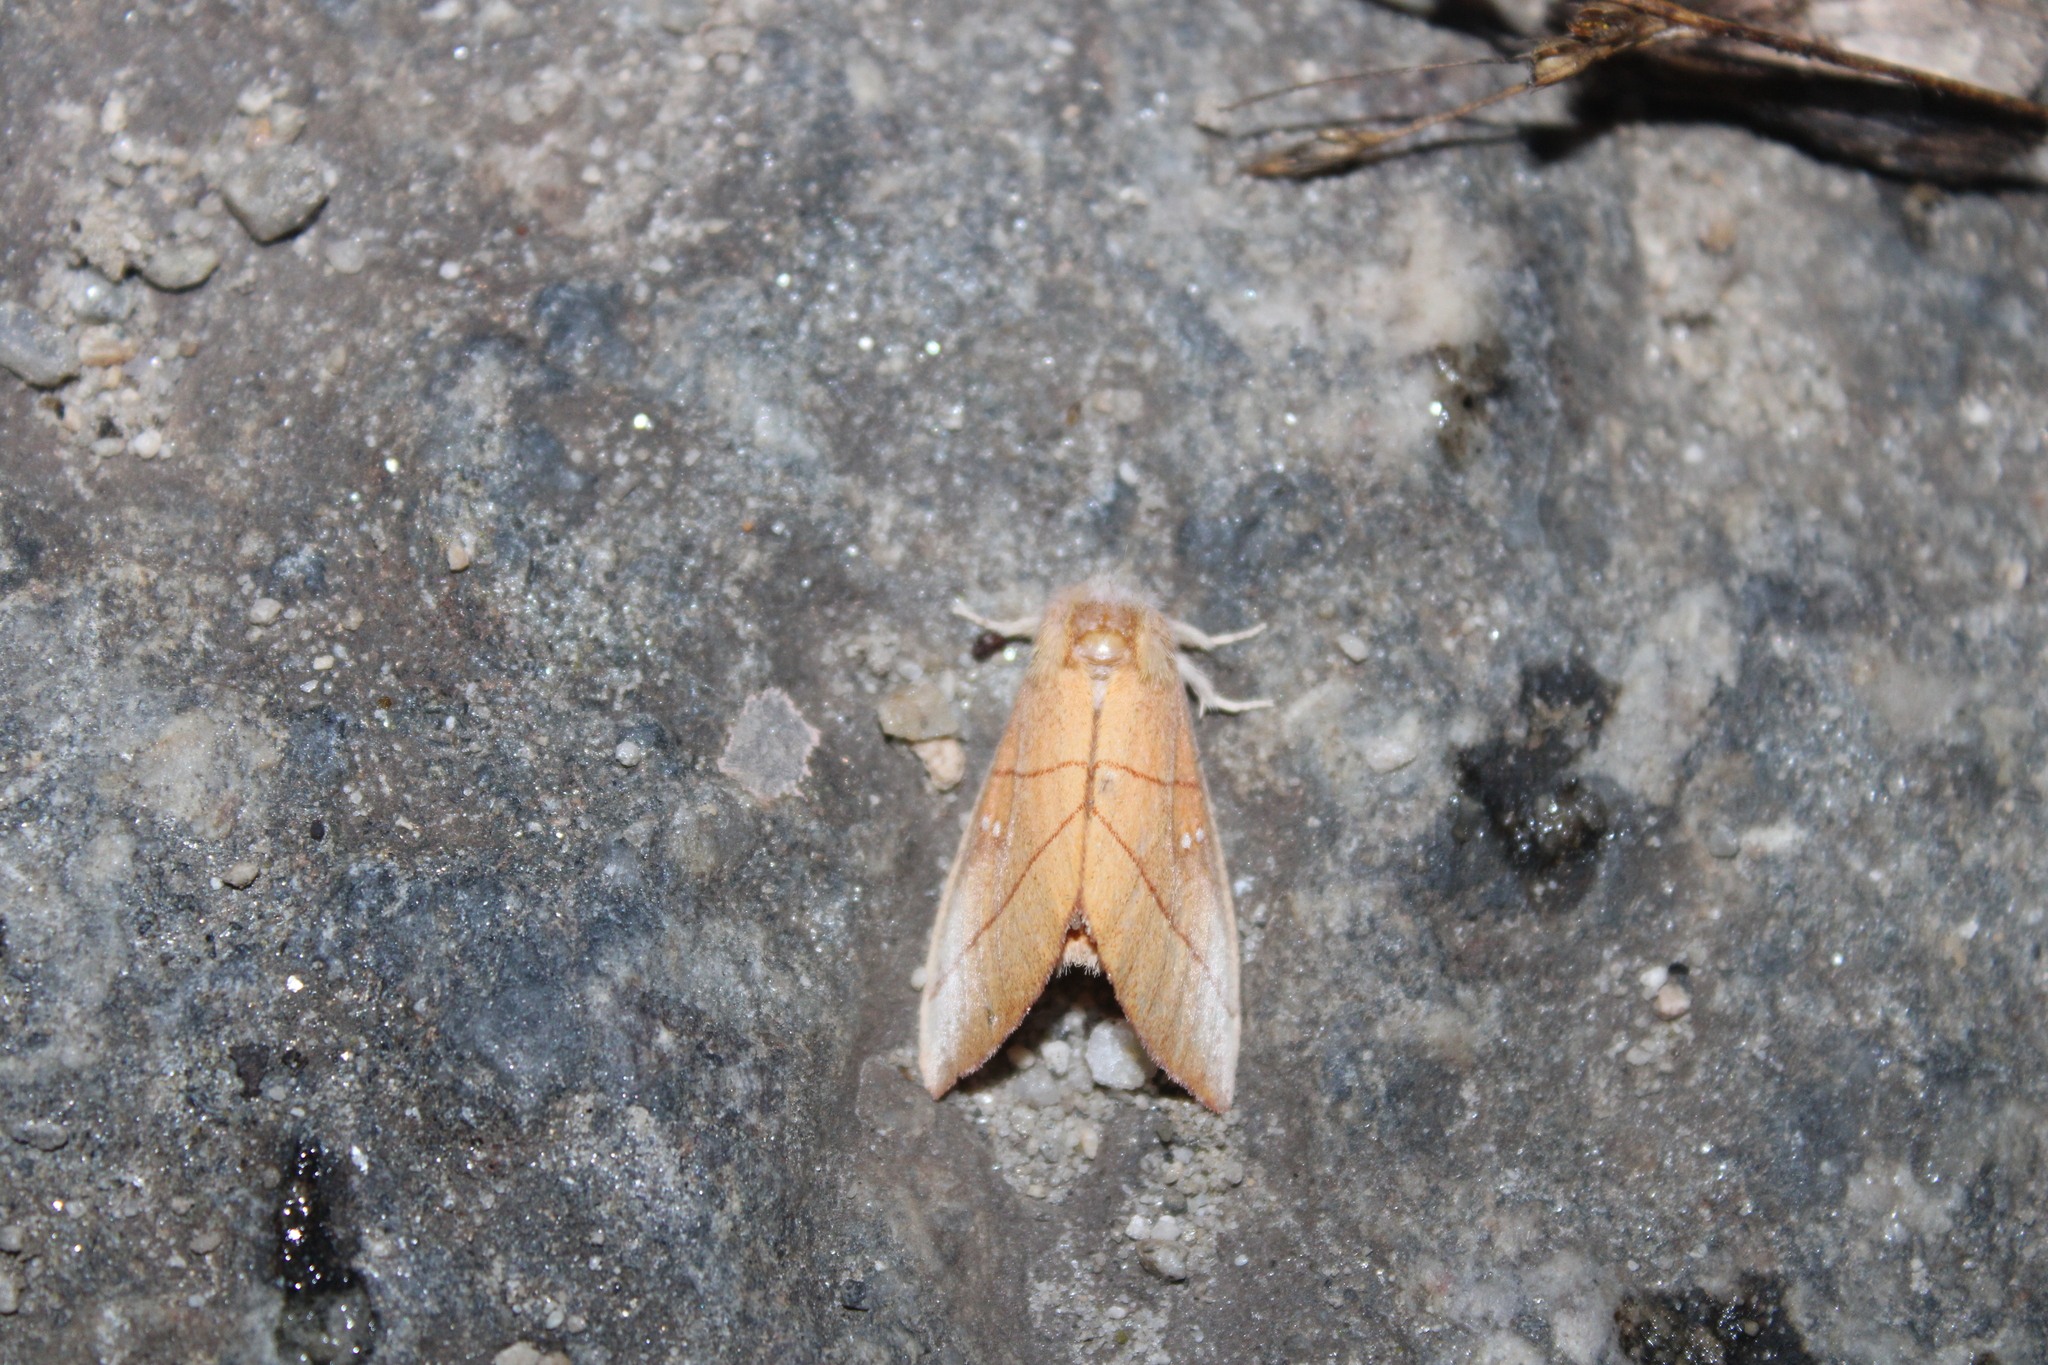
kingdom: Animalia
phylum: Arthropoda
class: Insecta
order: Lepidoptera
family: Notodontidae
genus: Nadata
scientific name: Nadata gibbosa
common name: White-dotted prominent
